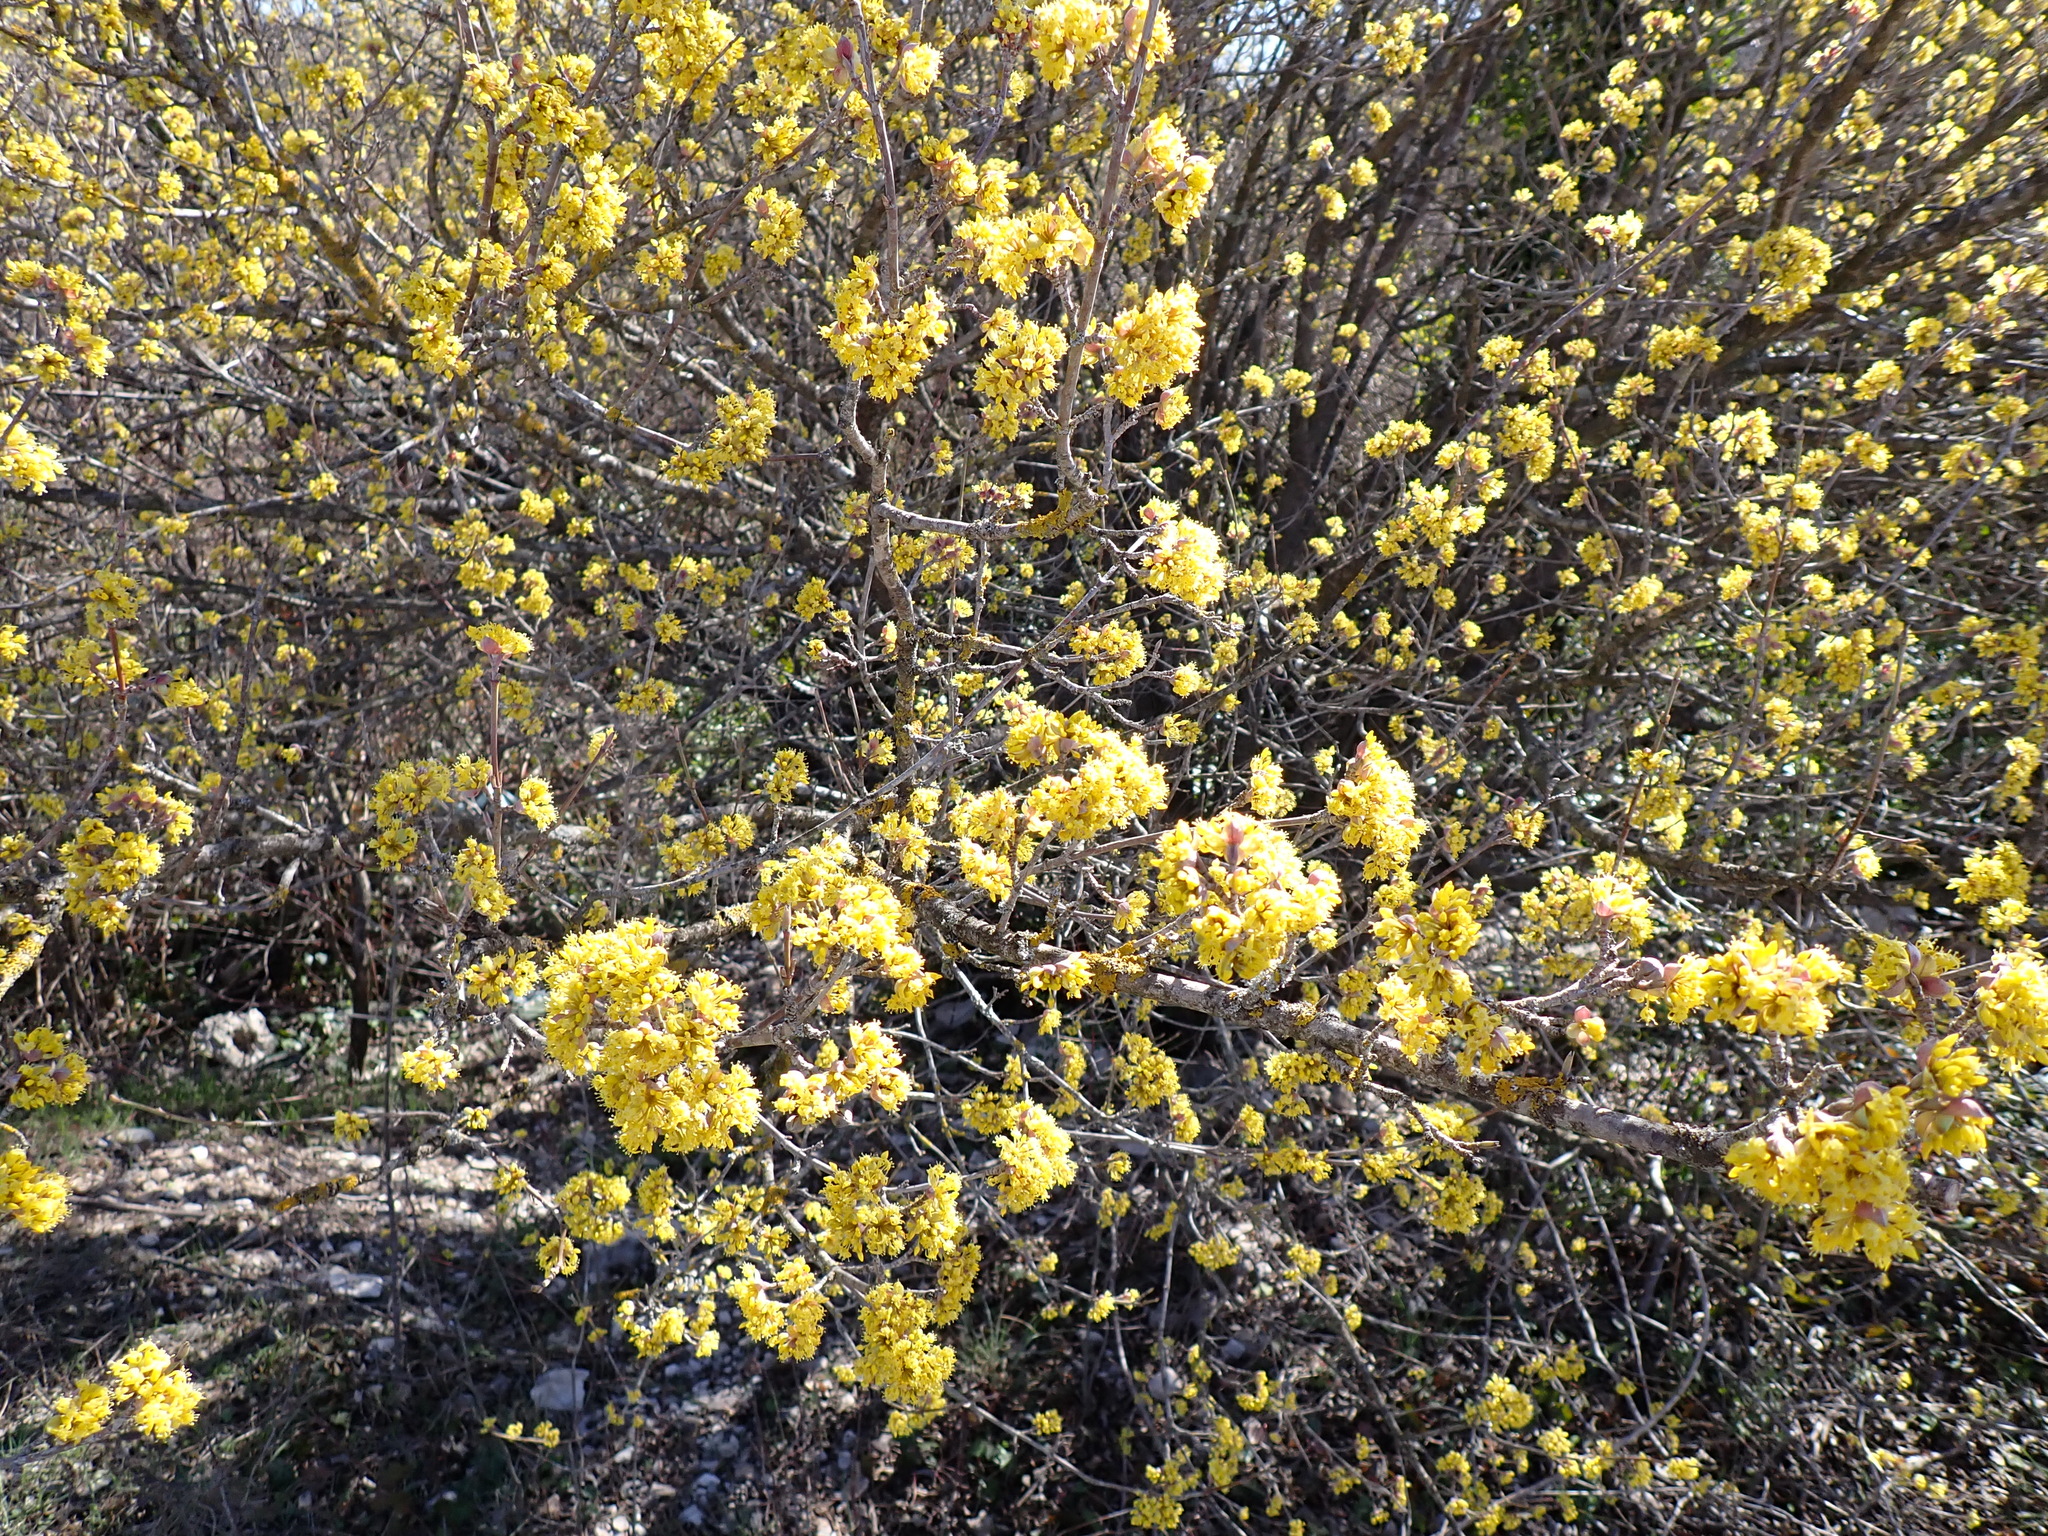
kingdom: Plantae
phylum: Tracheophyta
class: Magnoliopsida
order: Cornales
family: Cornaceae
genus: Cornus
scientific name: Cornus mas
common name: Cornelian-cherry
